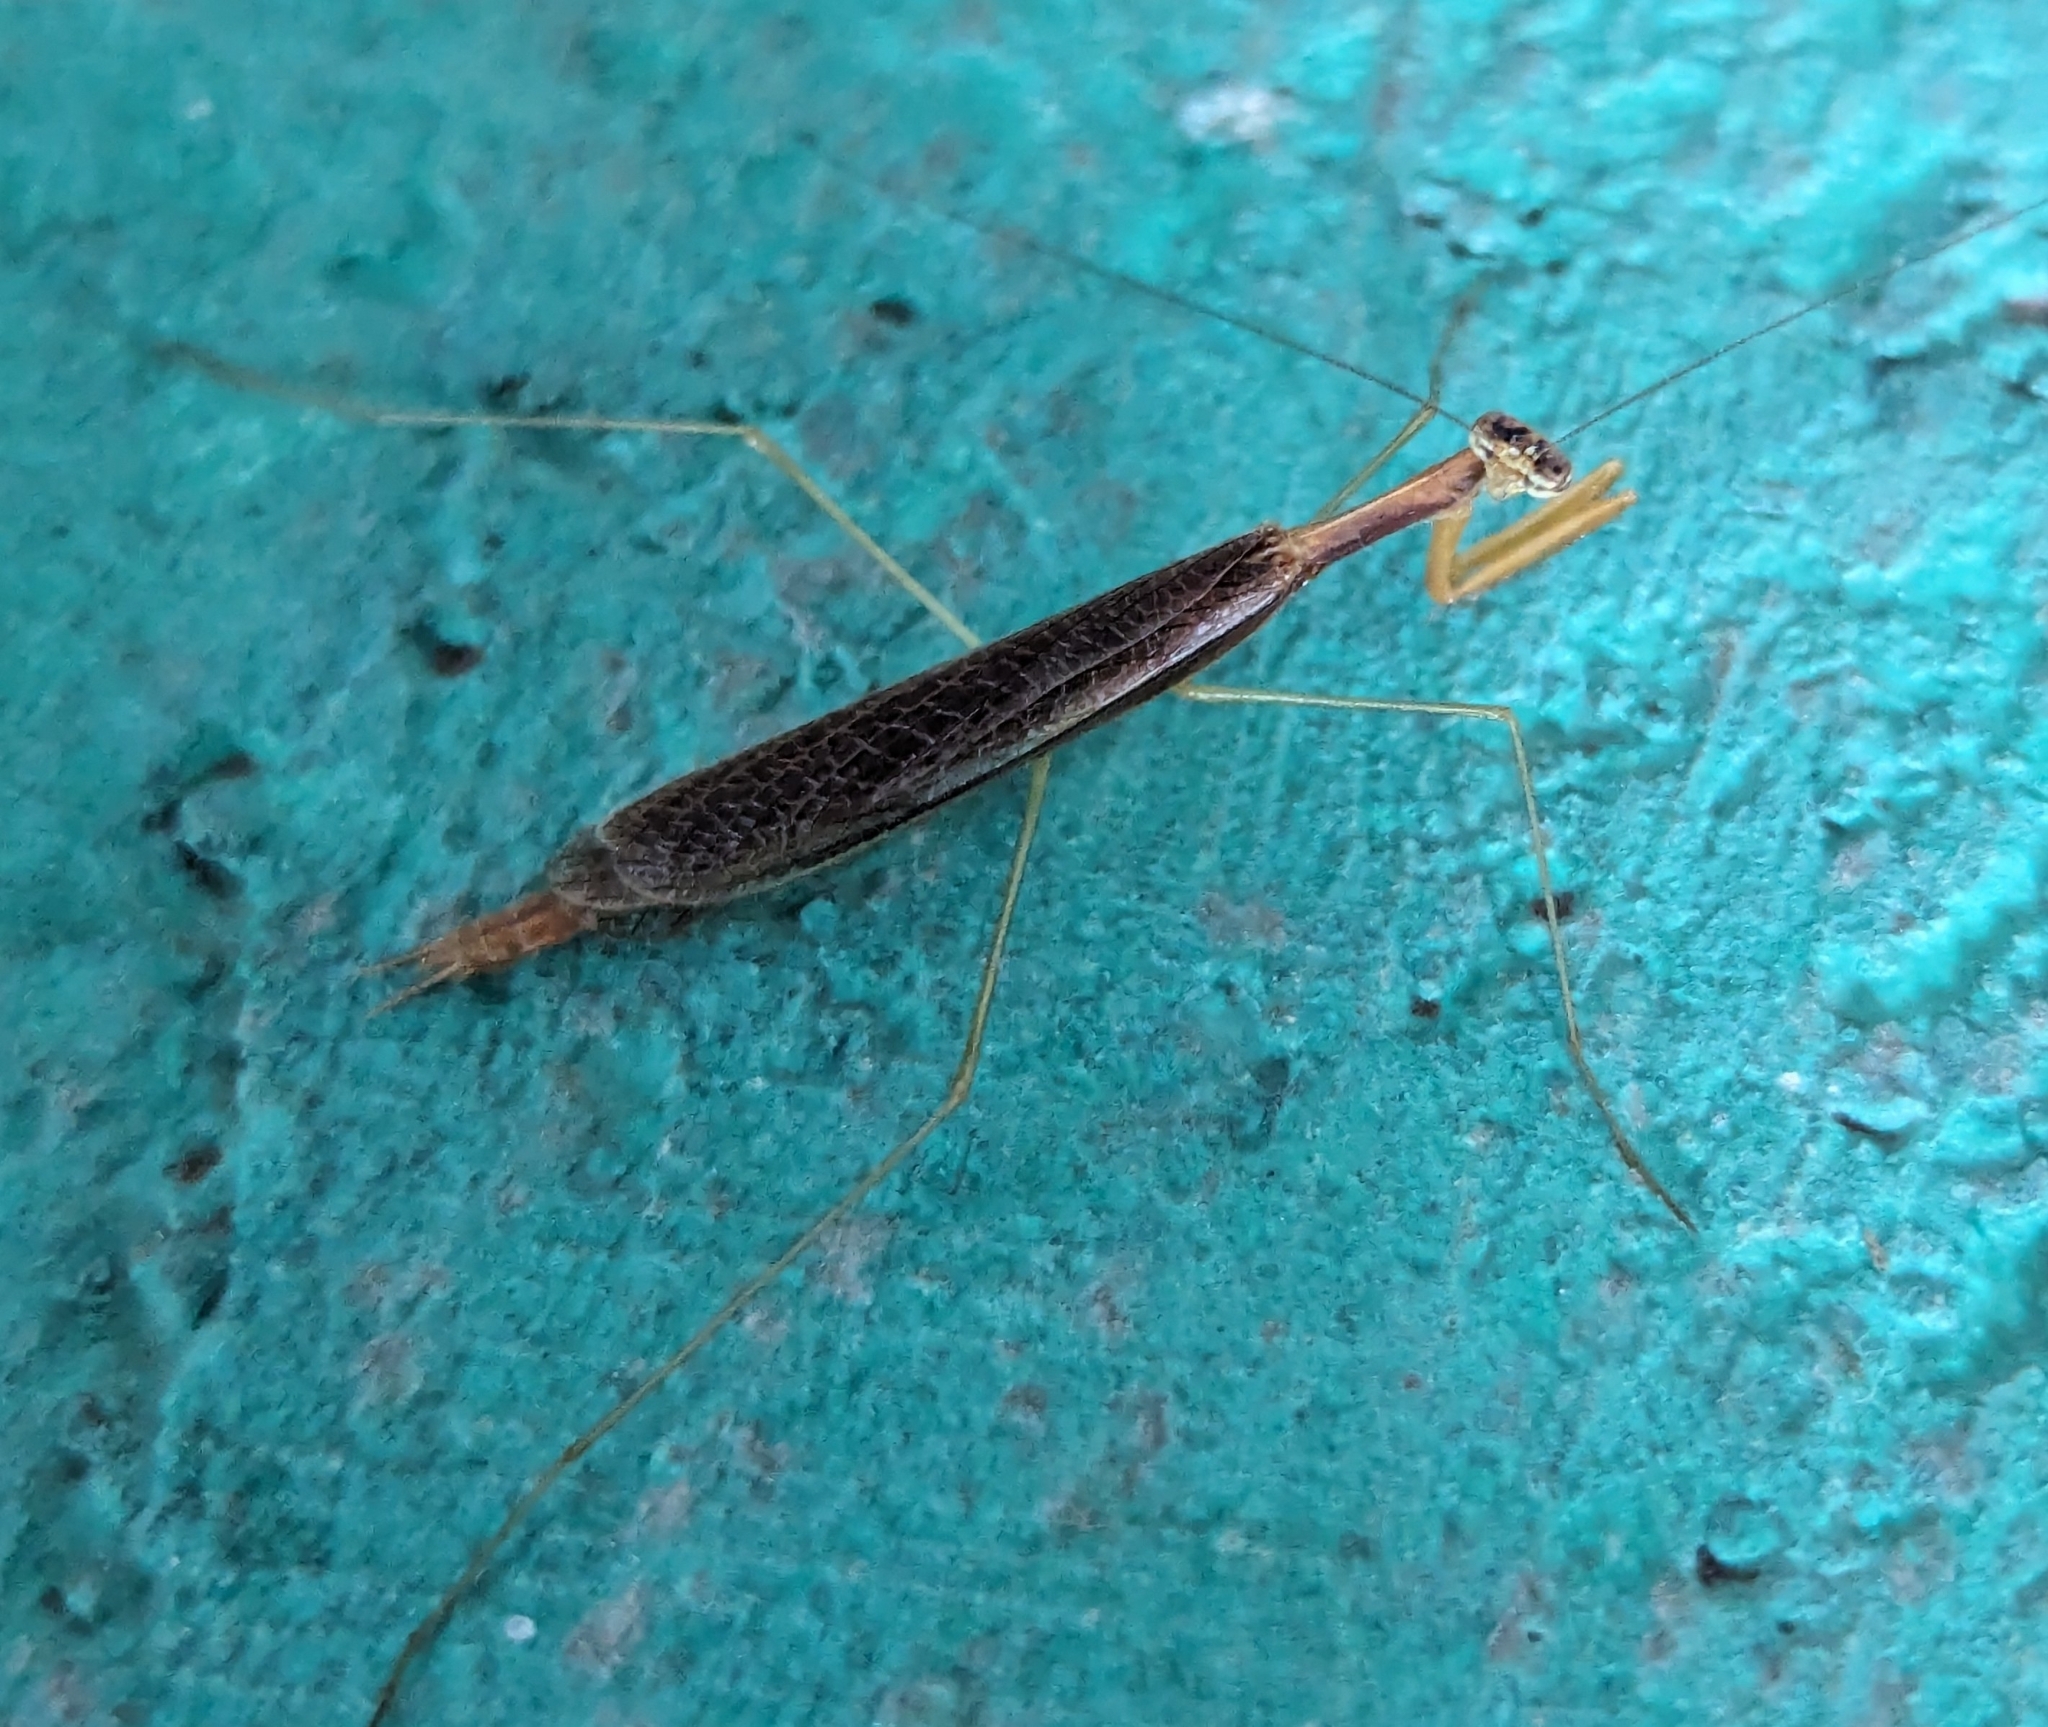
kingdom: Animalia
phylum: Arthropoda
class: Insecta
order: Mantodea
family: Thespidae
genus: Galapagia
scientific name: Galapagia solitaria
